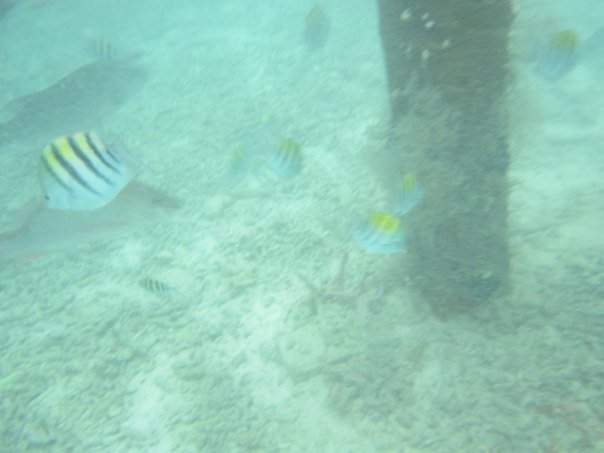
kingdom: Animalia
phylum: Chordata
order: Perciformes
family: Pomacentridae
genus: Abudefduf
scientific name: Abudefduf saxatilis
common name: Sergeant major
